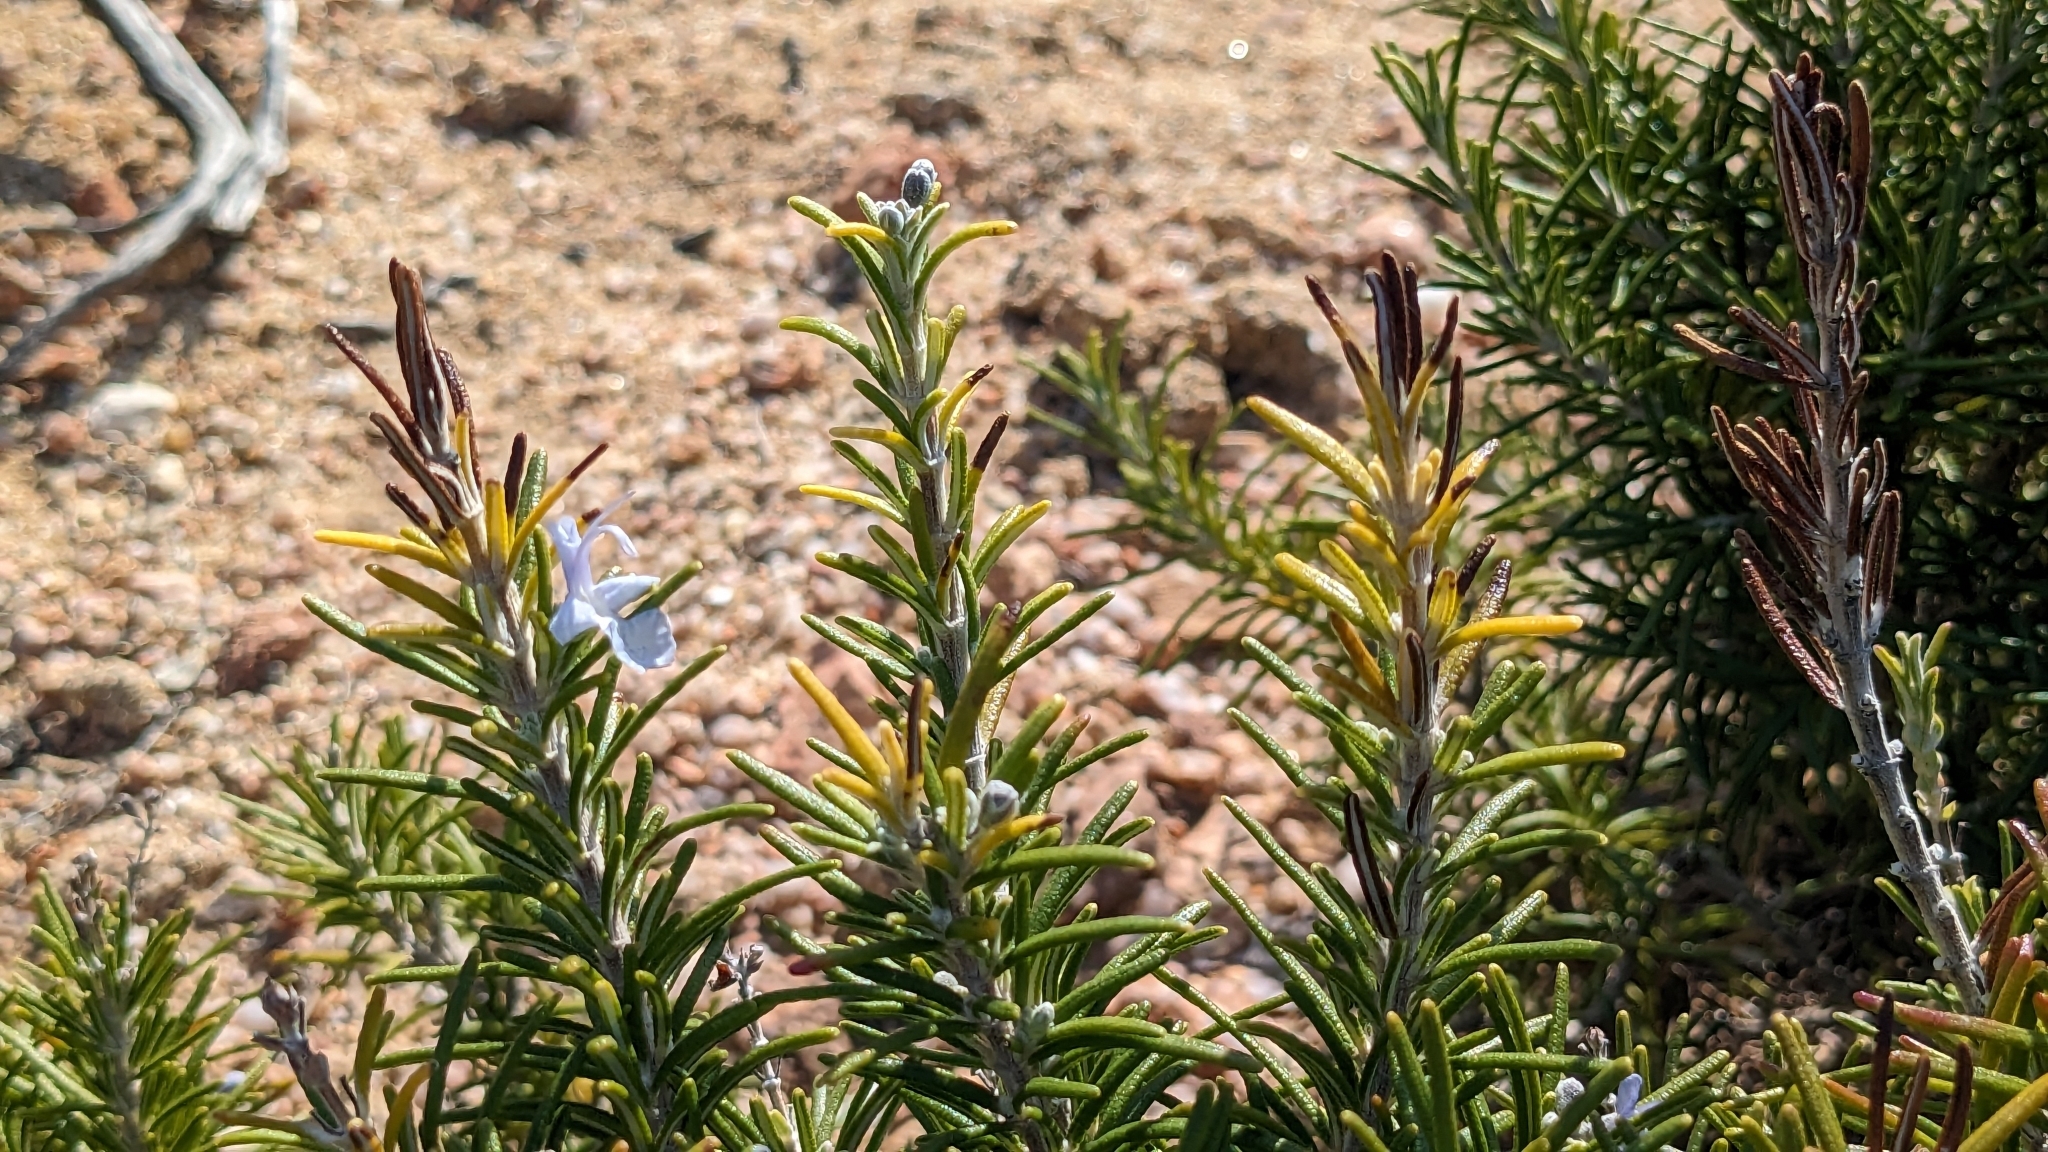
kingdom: Plantae
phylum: Tracheophyta
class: Magnoliopsida
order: Lamiales
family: Lamiaceae
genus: Salvia
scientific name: Salvia rosmarinus
